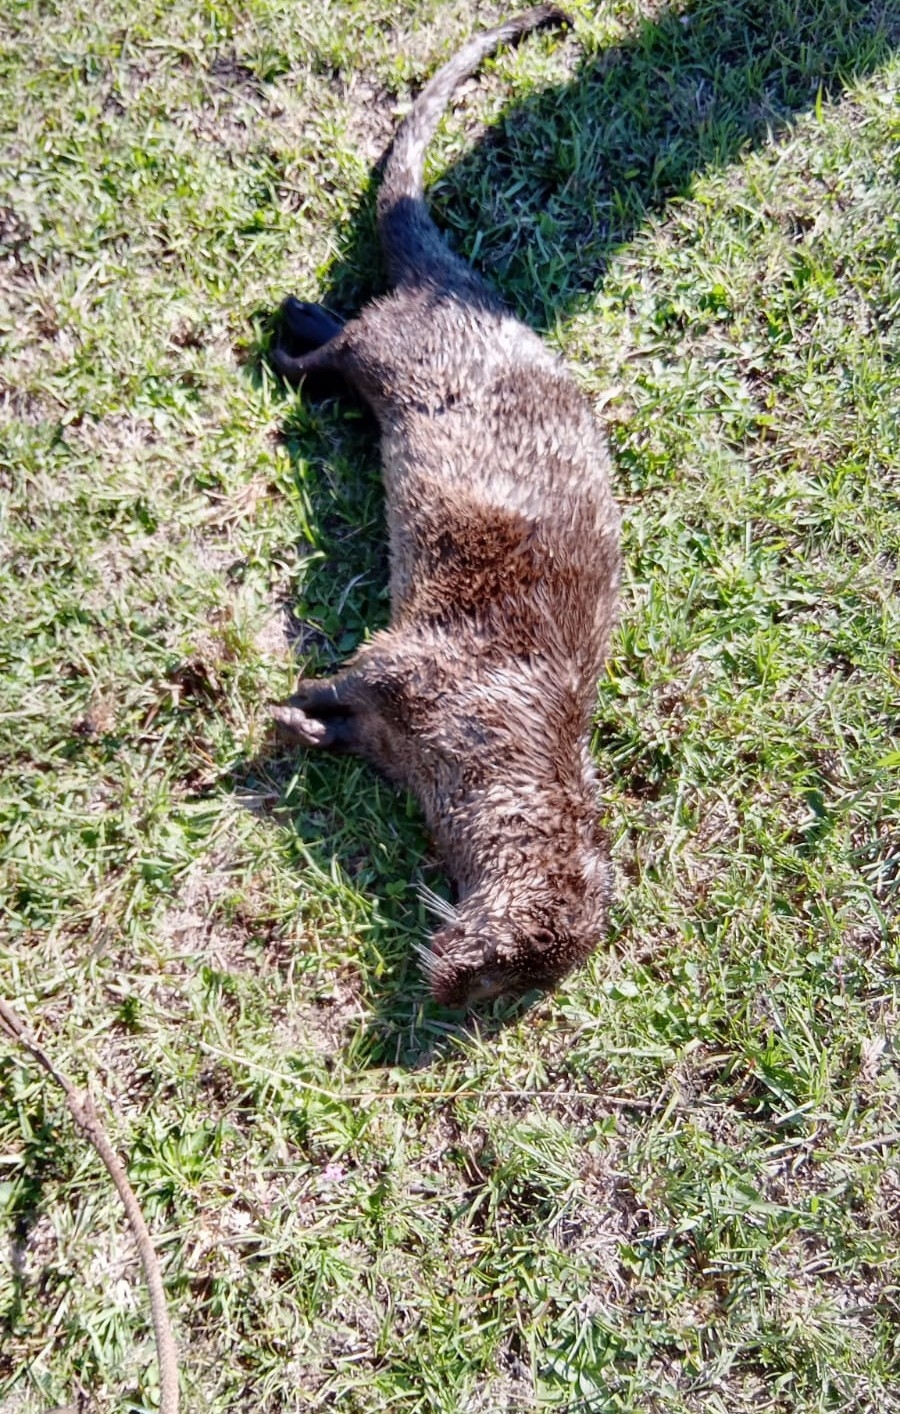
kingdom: Animalia
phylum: Chordata
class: Mammalia
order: Carnivora
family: Mustelidae
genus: Lontra
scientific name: Lontra longicaudis
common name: Neotropical otter
